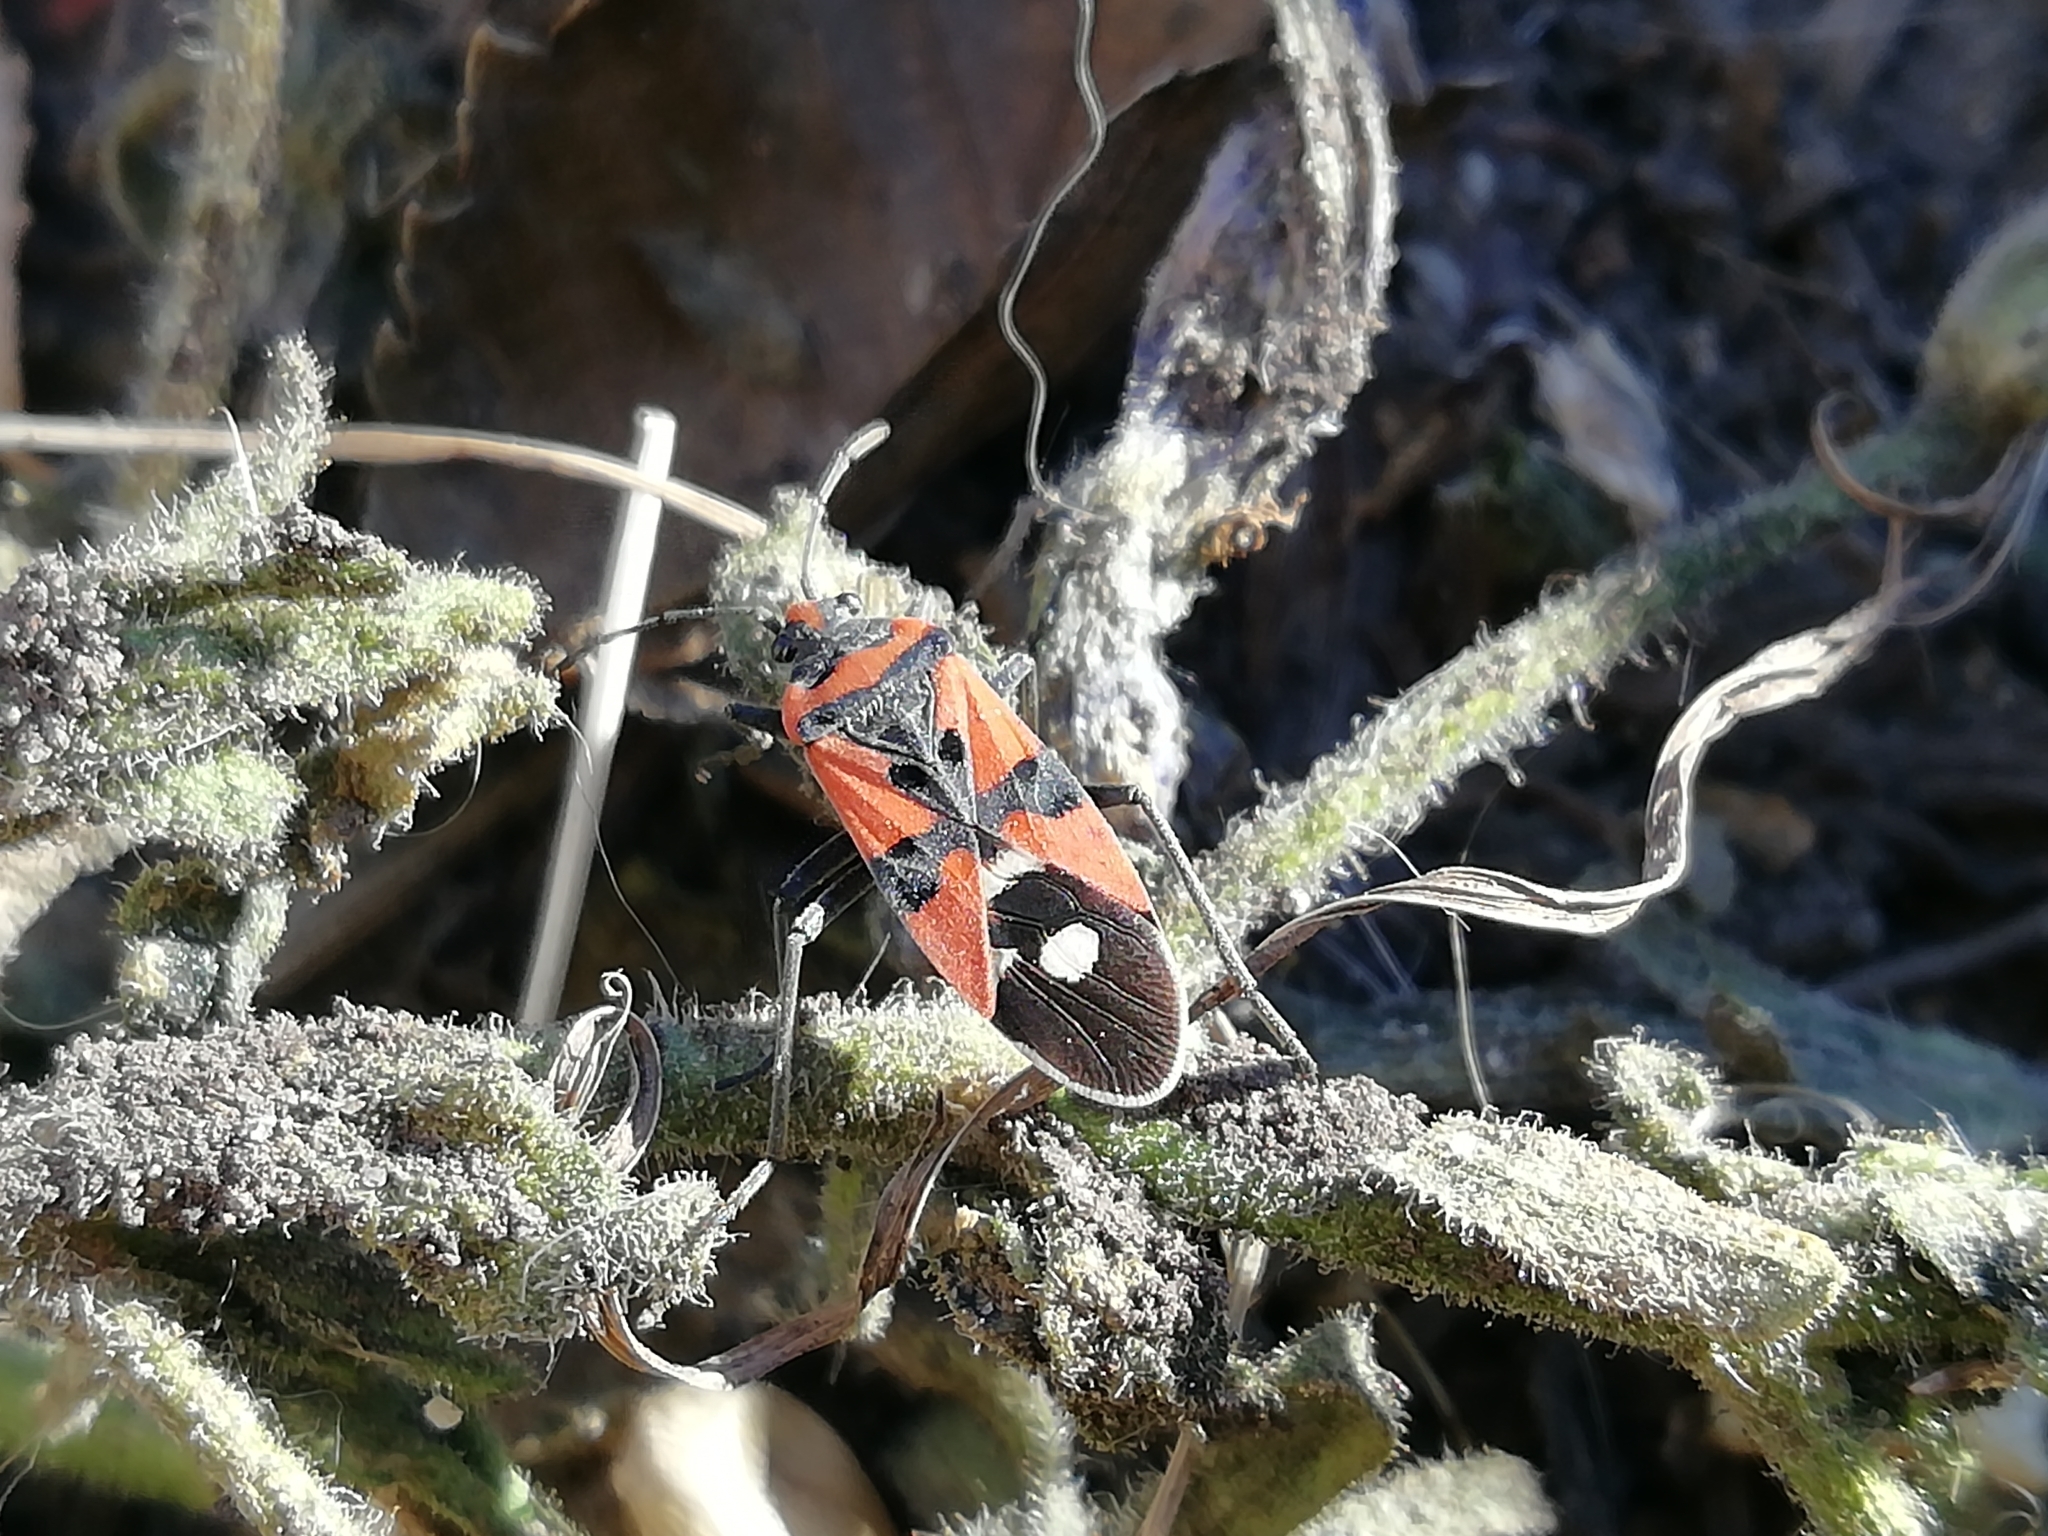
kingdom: Animalia
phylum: Arthropoda
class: Insecta
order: Hemiptera
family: Lygaeidae
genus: Lygaeus
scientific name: Lygaeus equestris
